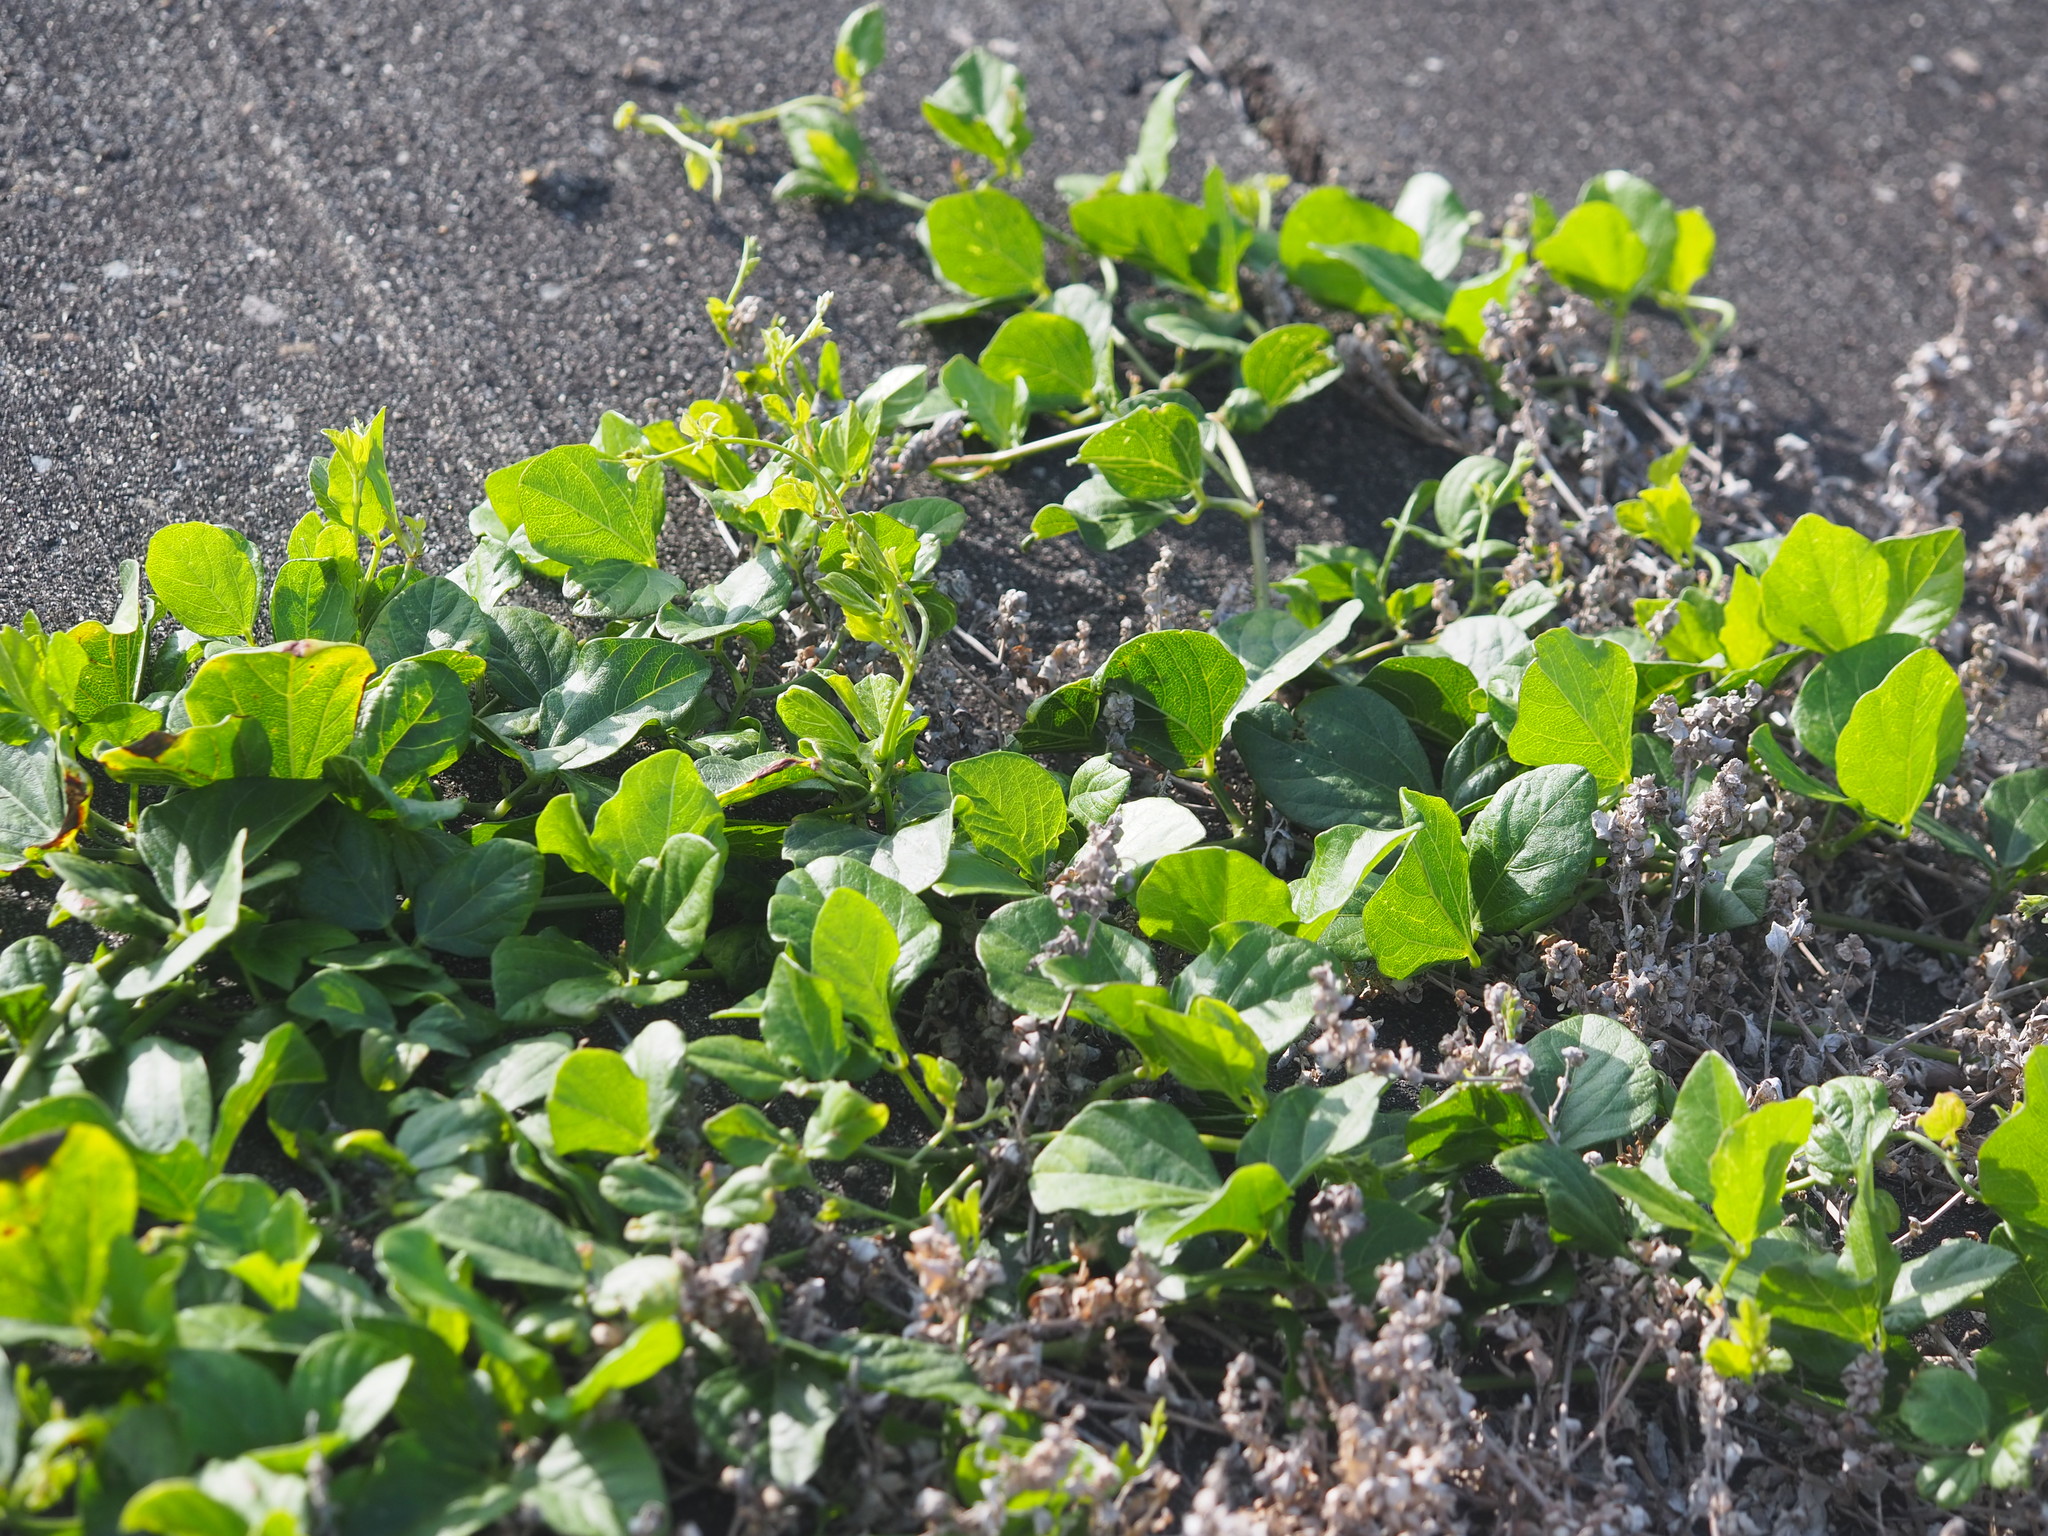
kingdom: Plantae
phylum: Tracheophyta
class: Magnoliopsida
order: Fabales
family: Fabaceae
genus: Vigna
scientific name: Vigna marina
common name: Dune-bean
